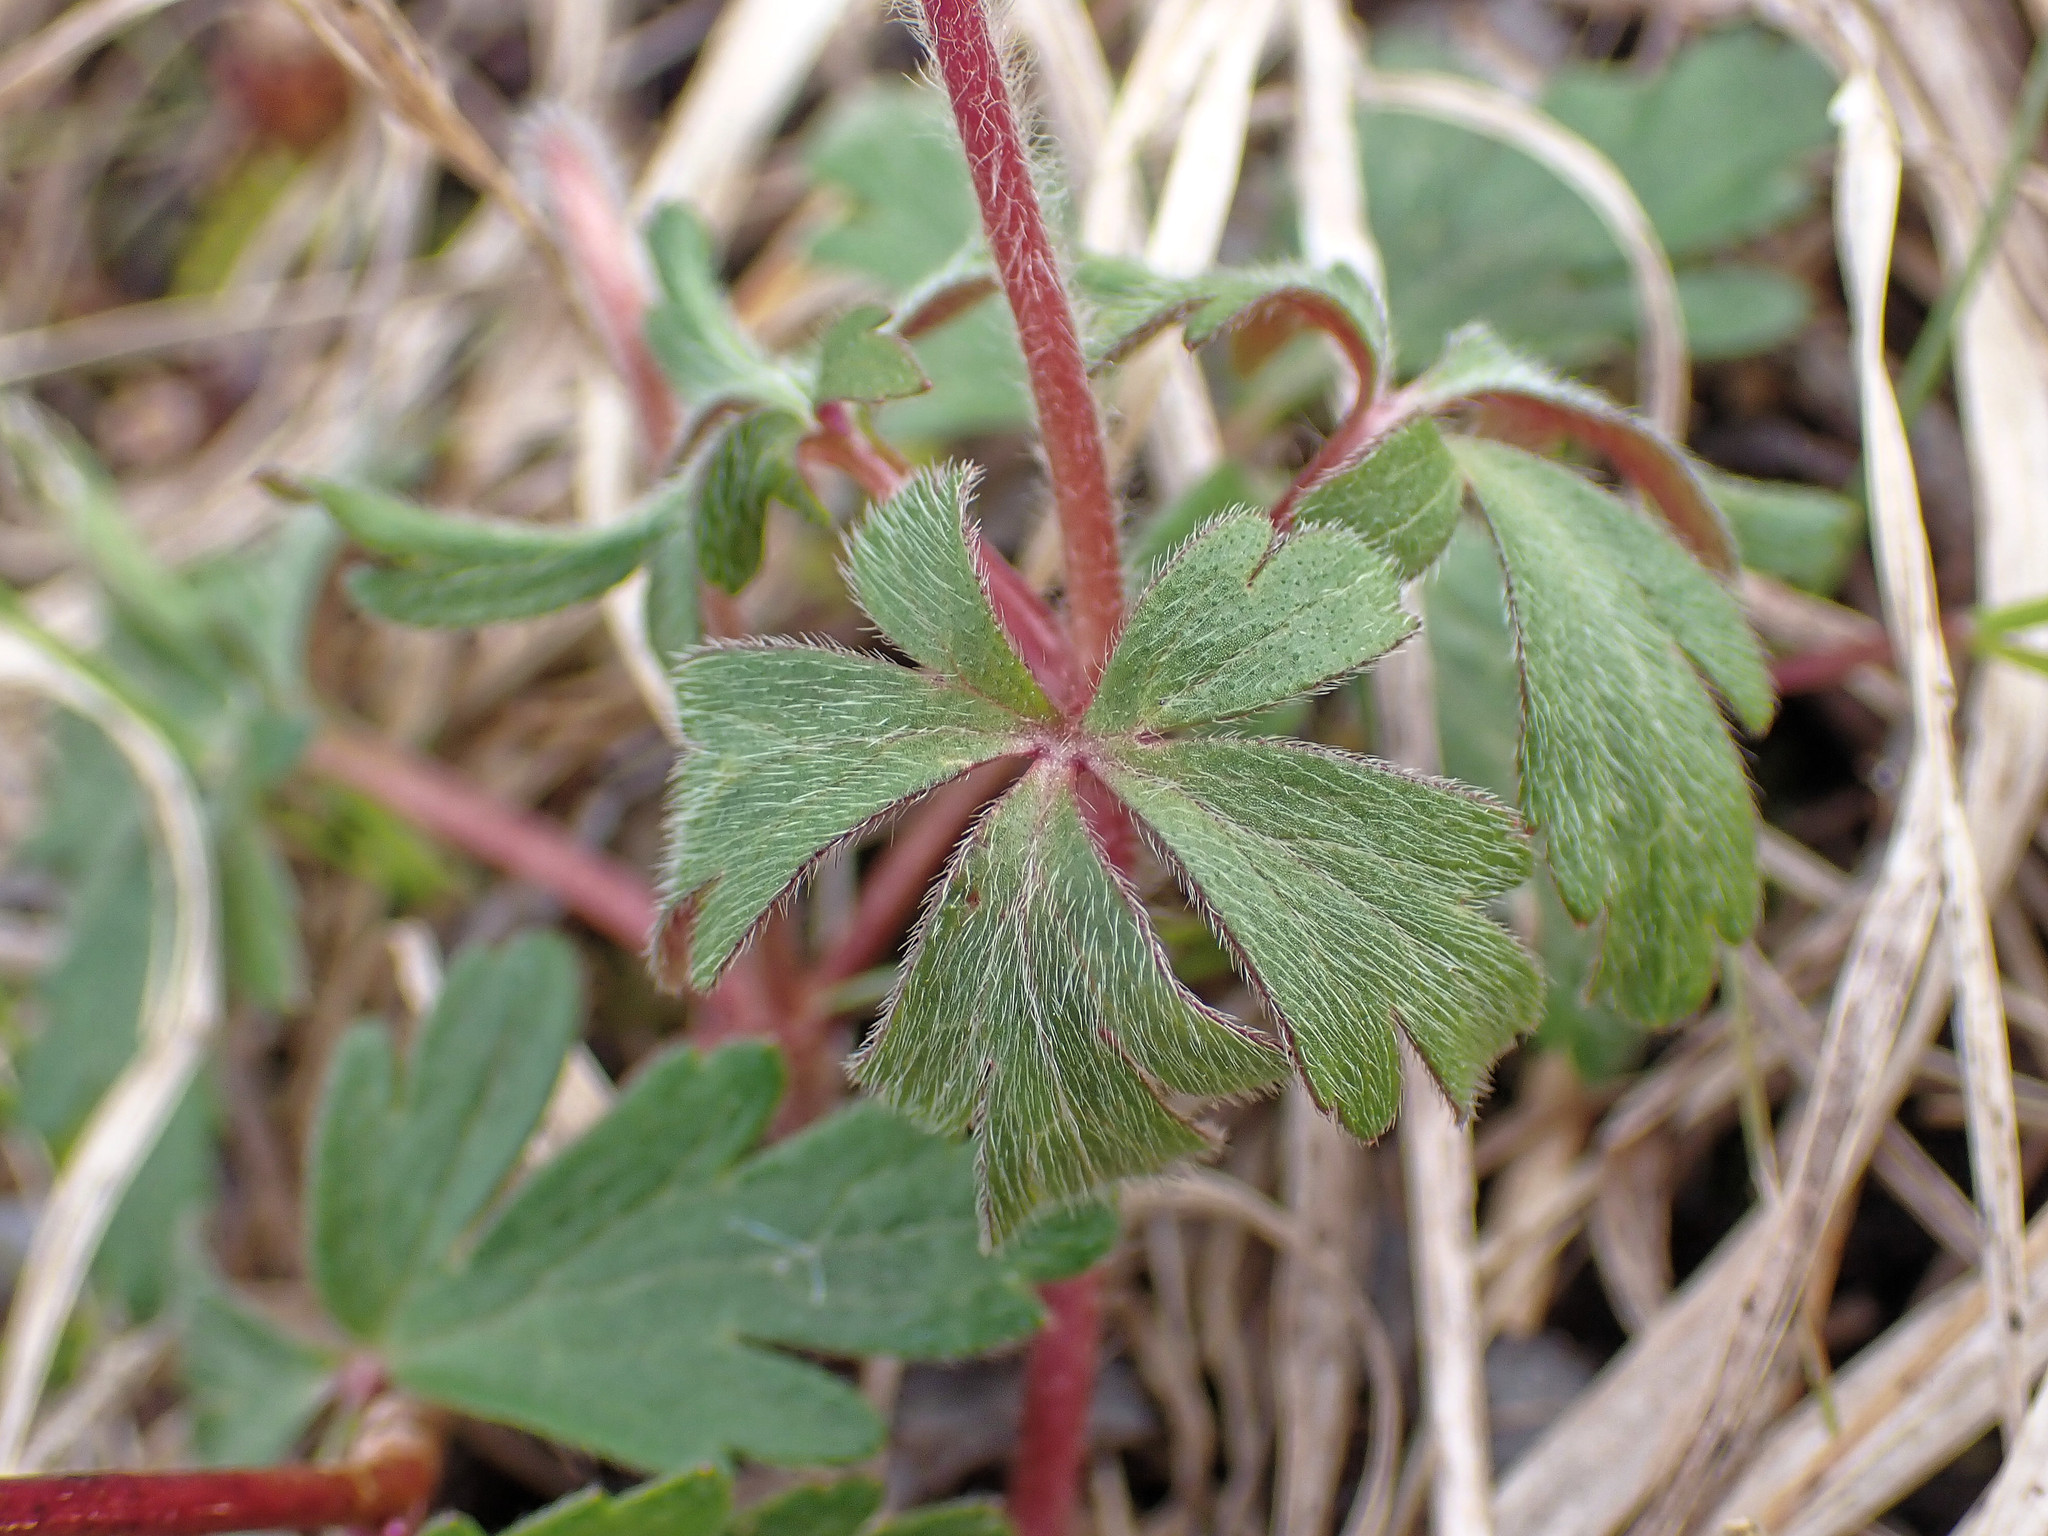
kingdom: Plantae
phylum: Tracheophyta
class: Magnoliopsida
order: Ranunculales
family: Ranunculaceae
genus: Anemone
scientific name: Anemone blanda
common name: Balkan anemone
